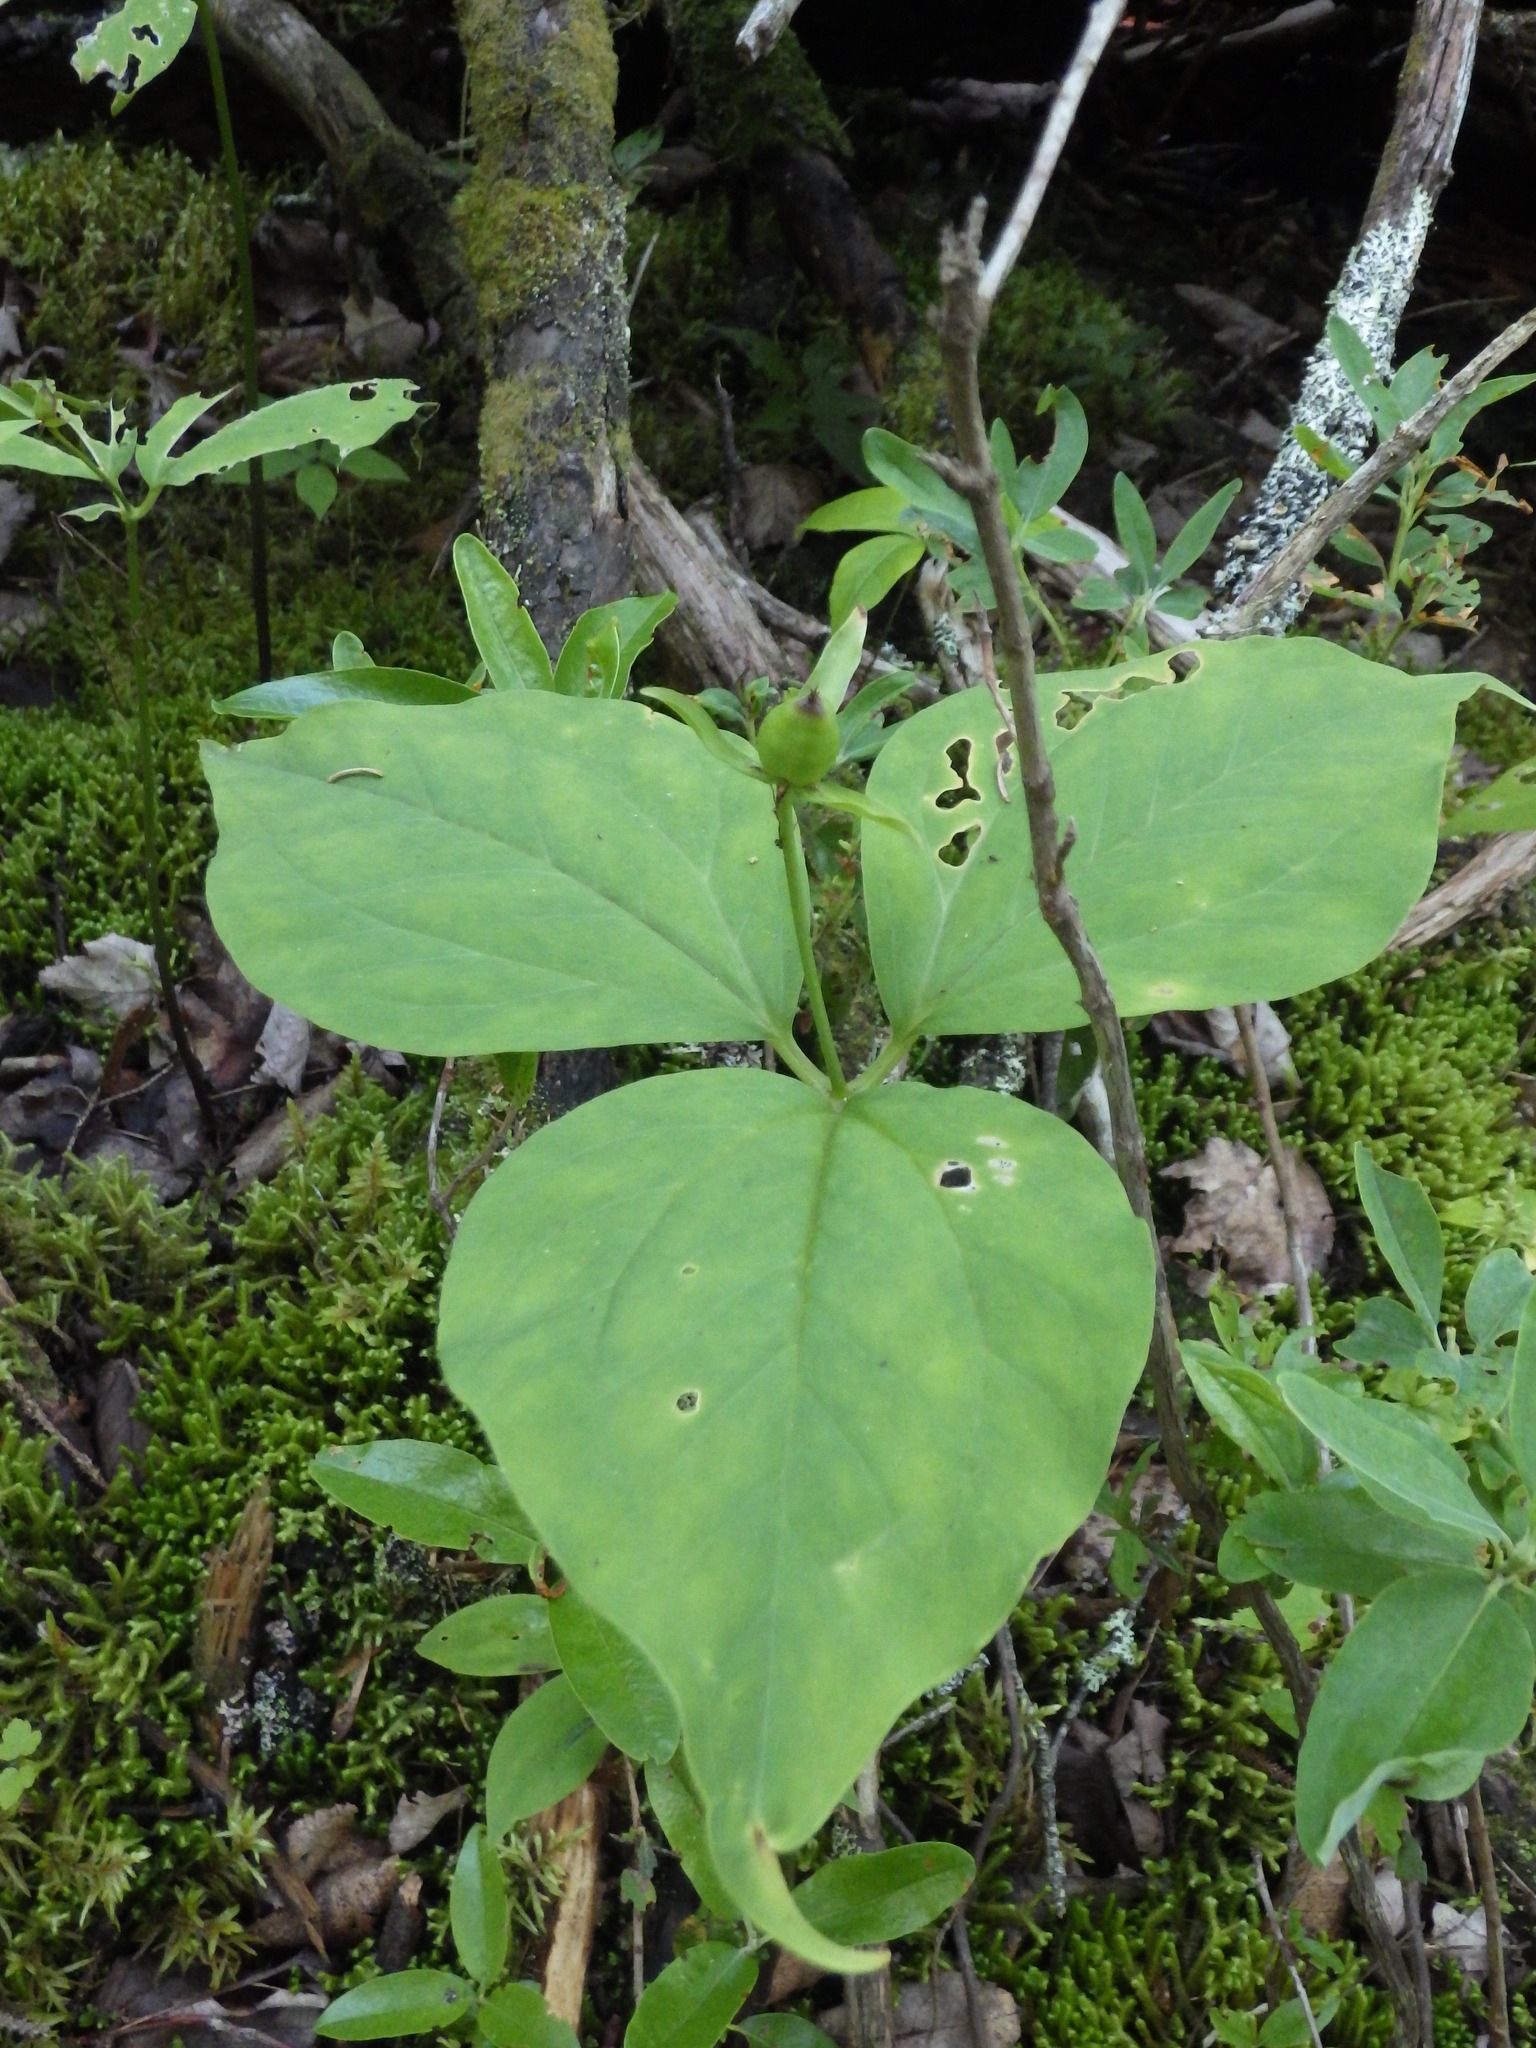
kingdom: Plantae
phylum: Tracheophyta
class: Liliopsida
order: Liliales
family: Melanthiaceae
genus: Trillium
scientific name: Trillium undulatum
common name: Paint trillium
